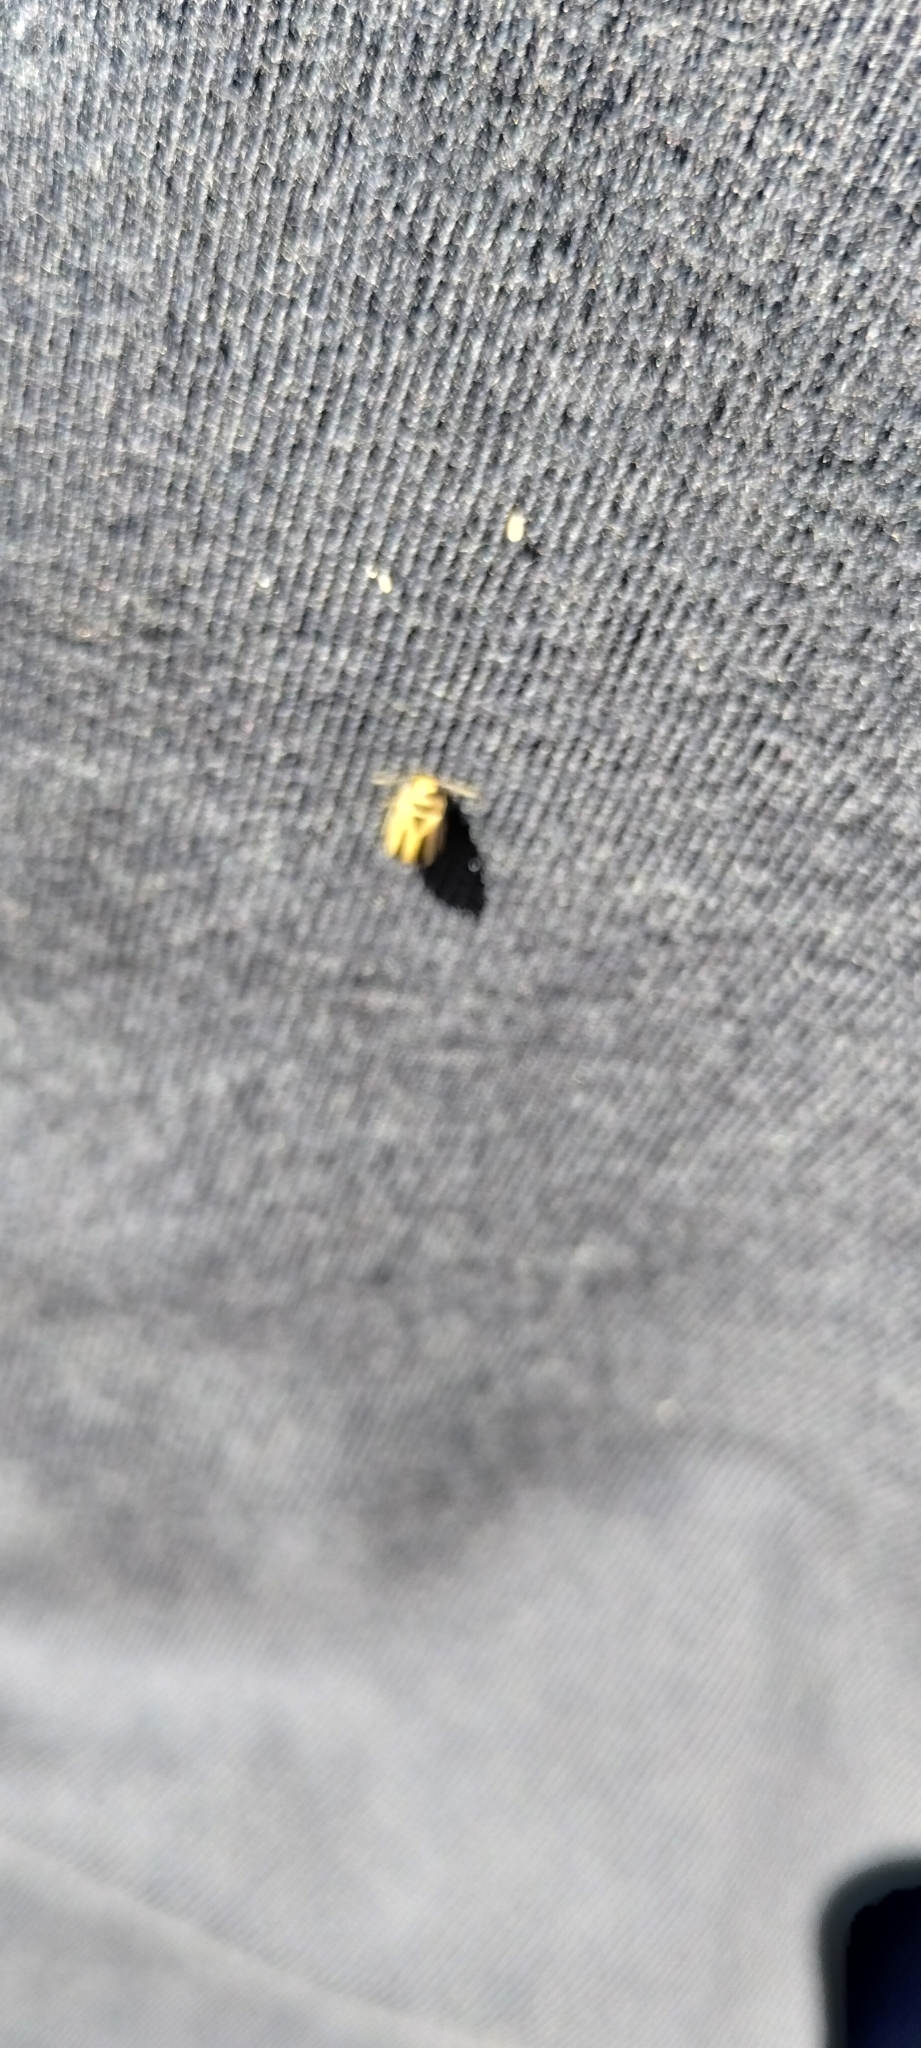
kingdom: Animalia
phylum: Arthropoda
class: Insecta
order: Coleoptera
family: Chrysomelidae
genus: Kuschelina
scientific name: Kuschelina
